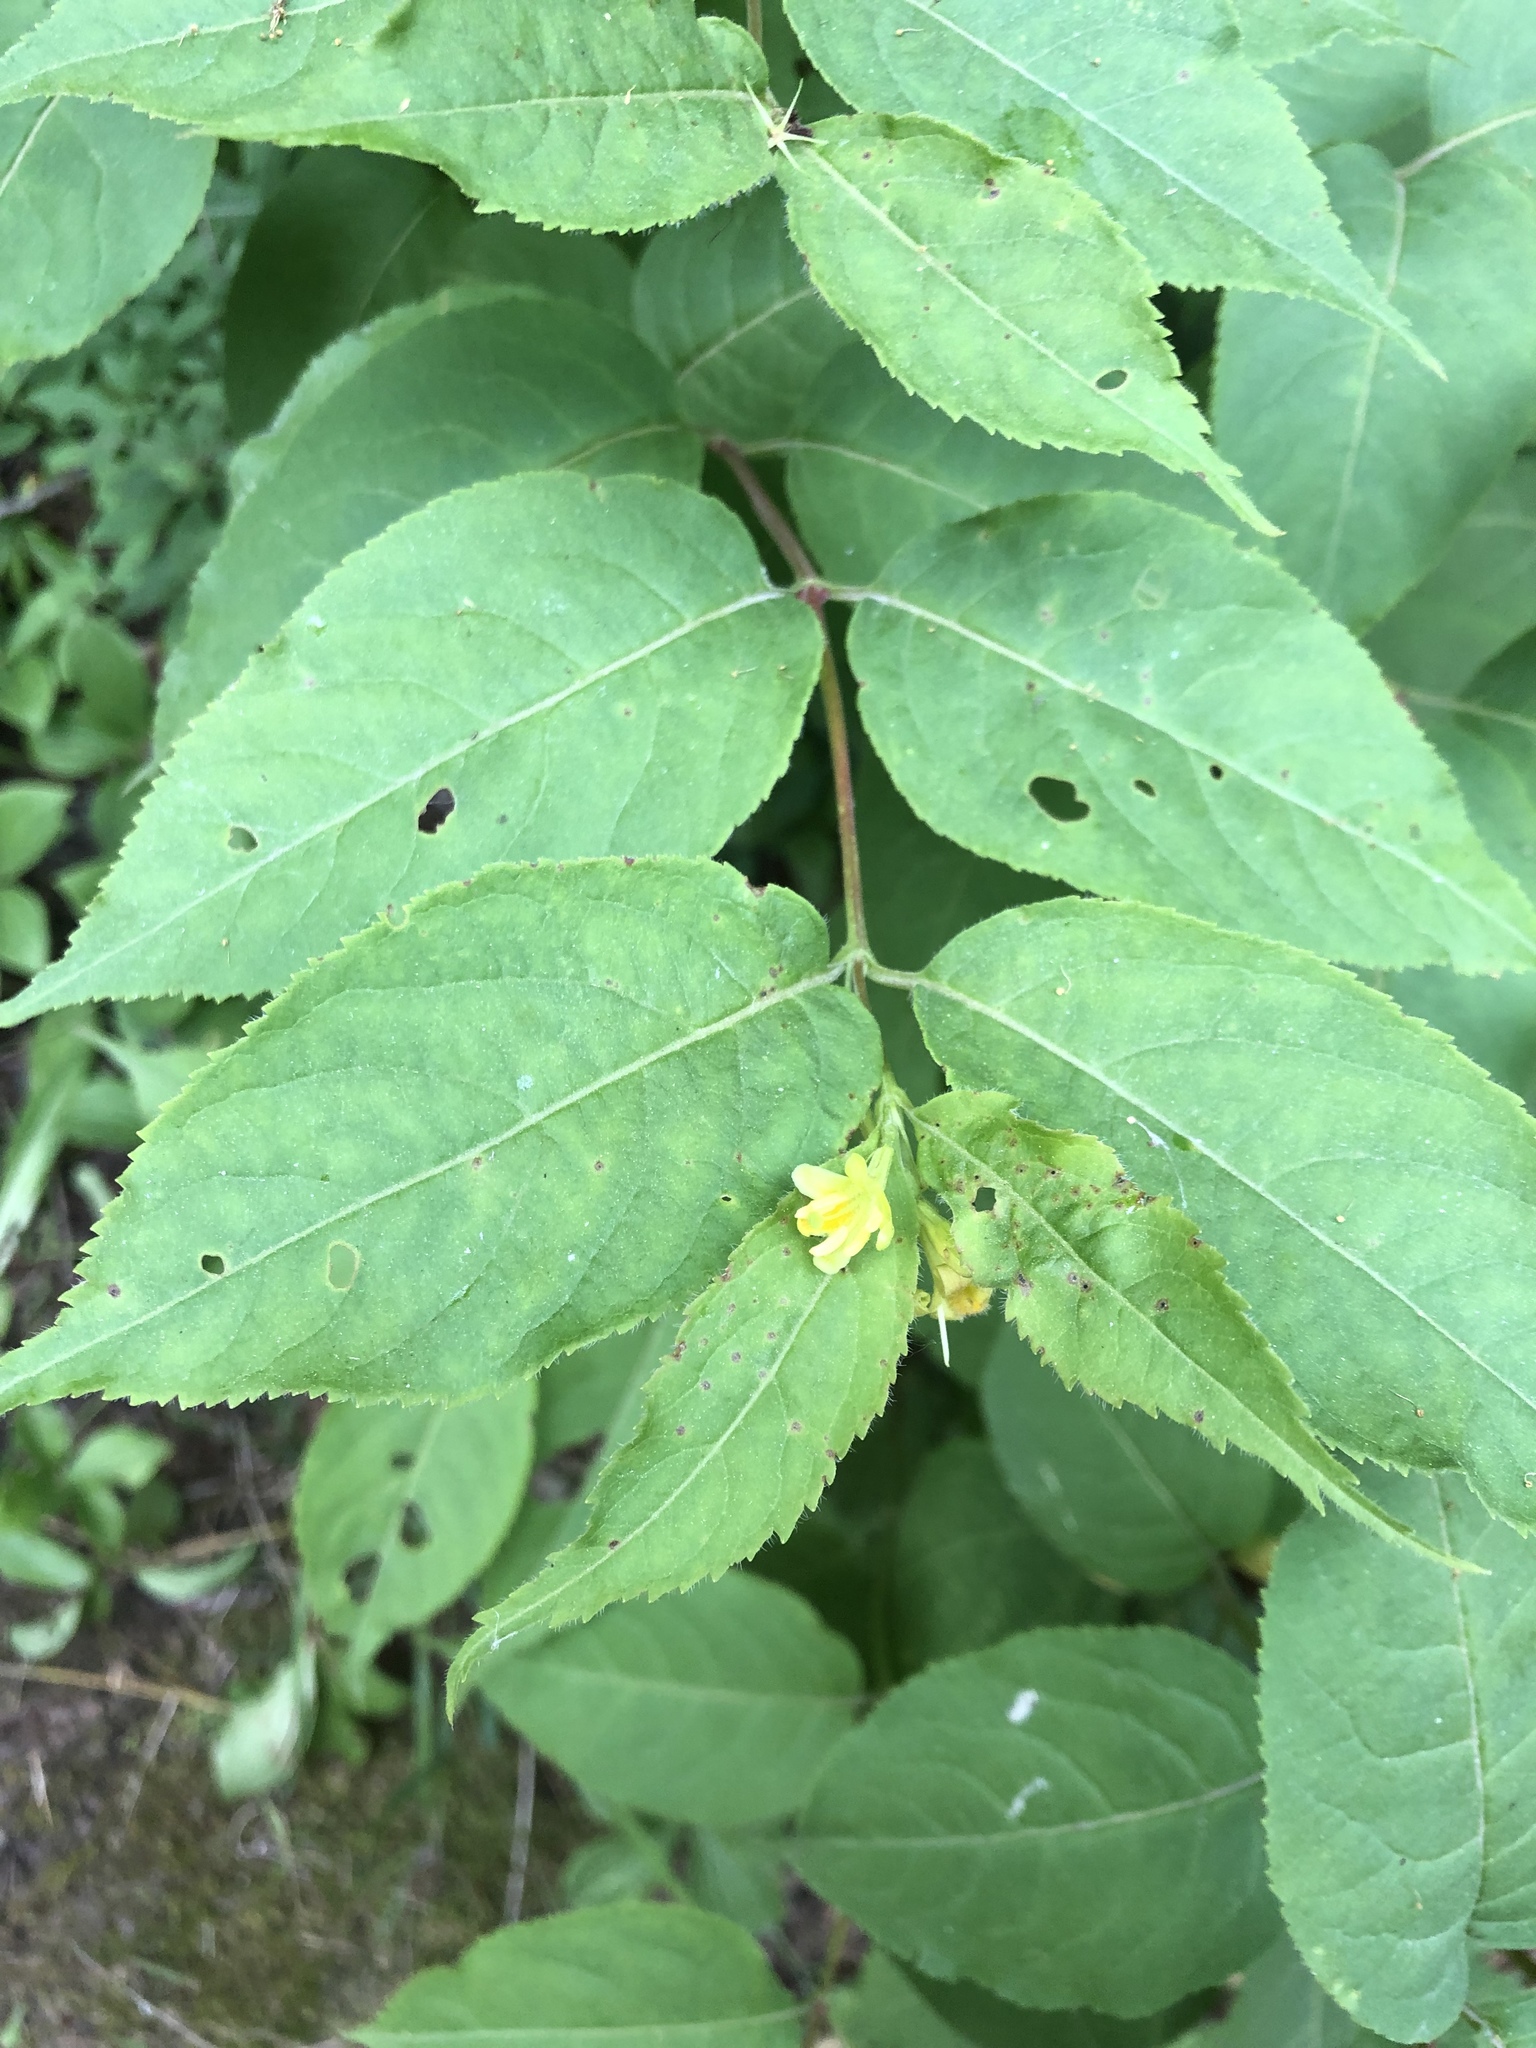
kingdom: Plantae
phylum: Tracheophyta
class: Magnoliopsida
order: Dipsacales
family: Caprifoliaceae
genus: Diervilla
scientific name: Diervilla lonicera
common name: Bush-honeysuckle
